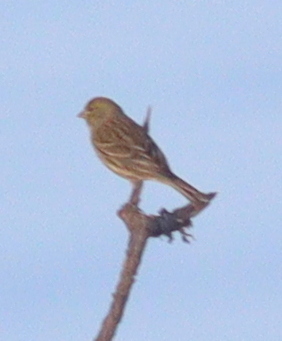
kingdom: Animalia
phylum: Chordata
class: Aves
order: Passeriformes
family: Fringillidae
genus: Serinus
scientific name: Serinus canaria
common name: Atlantic canary
